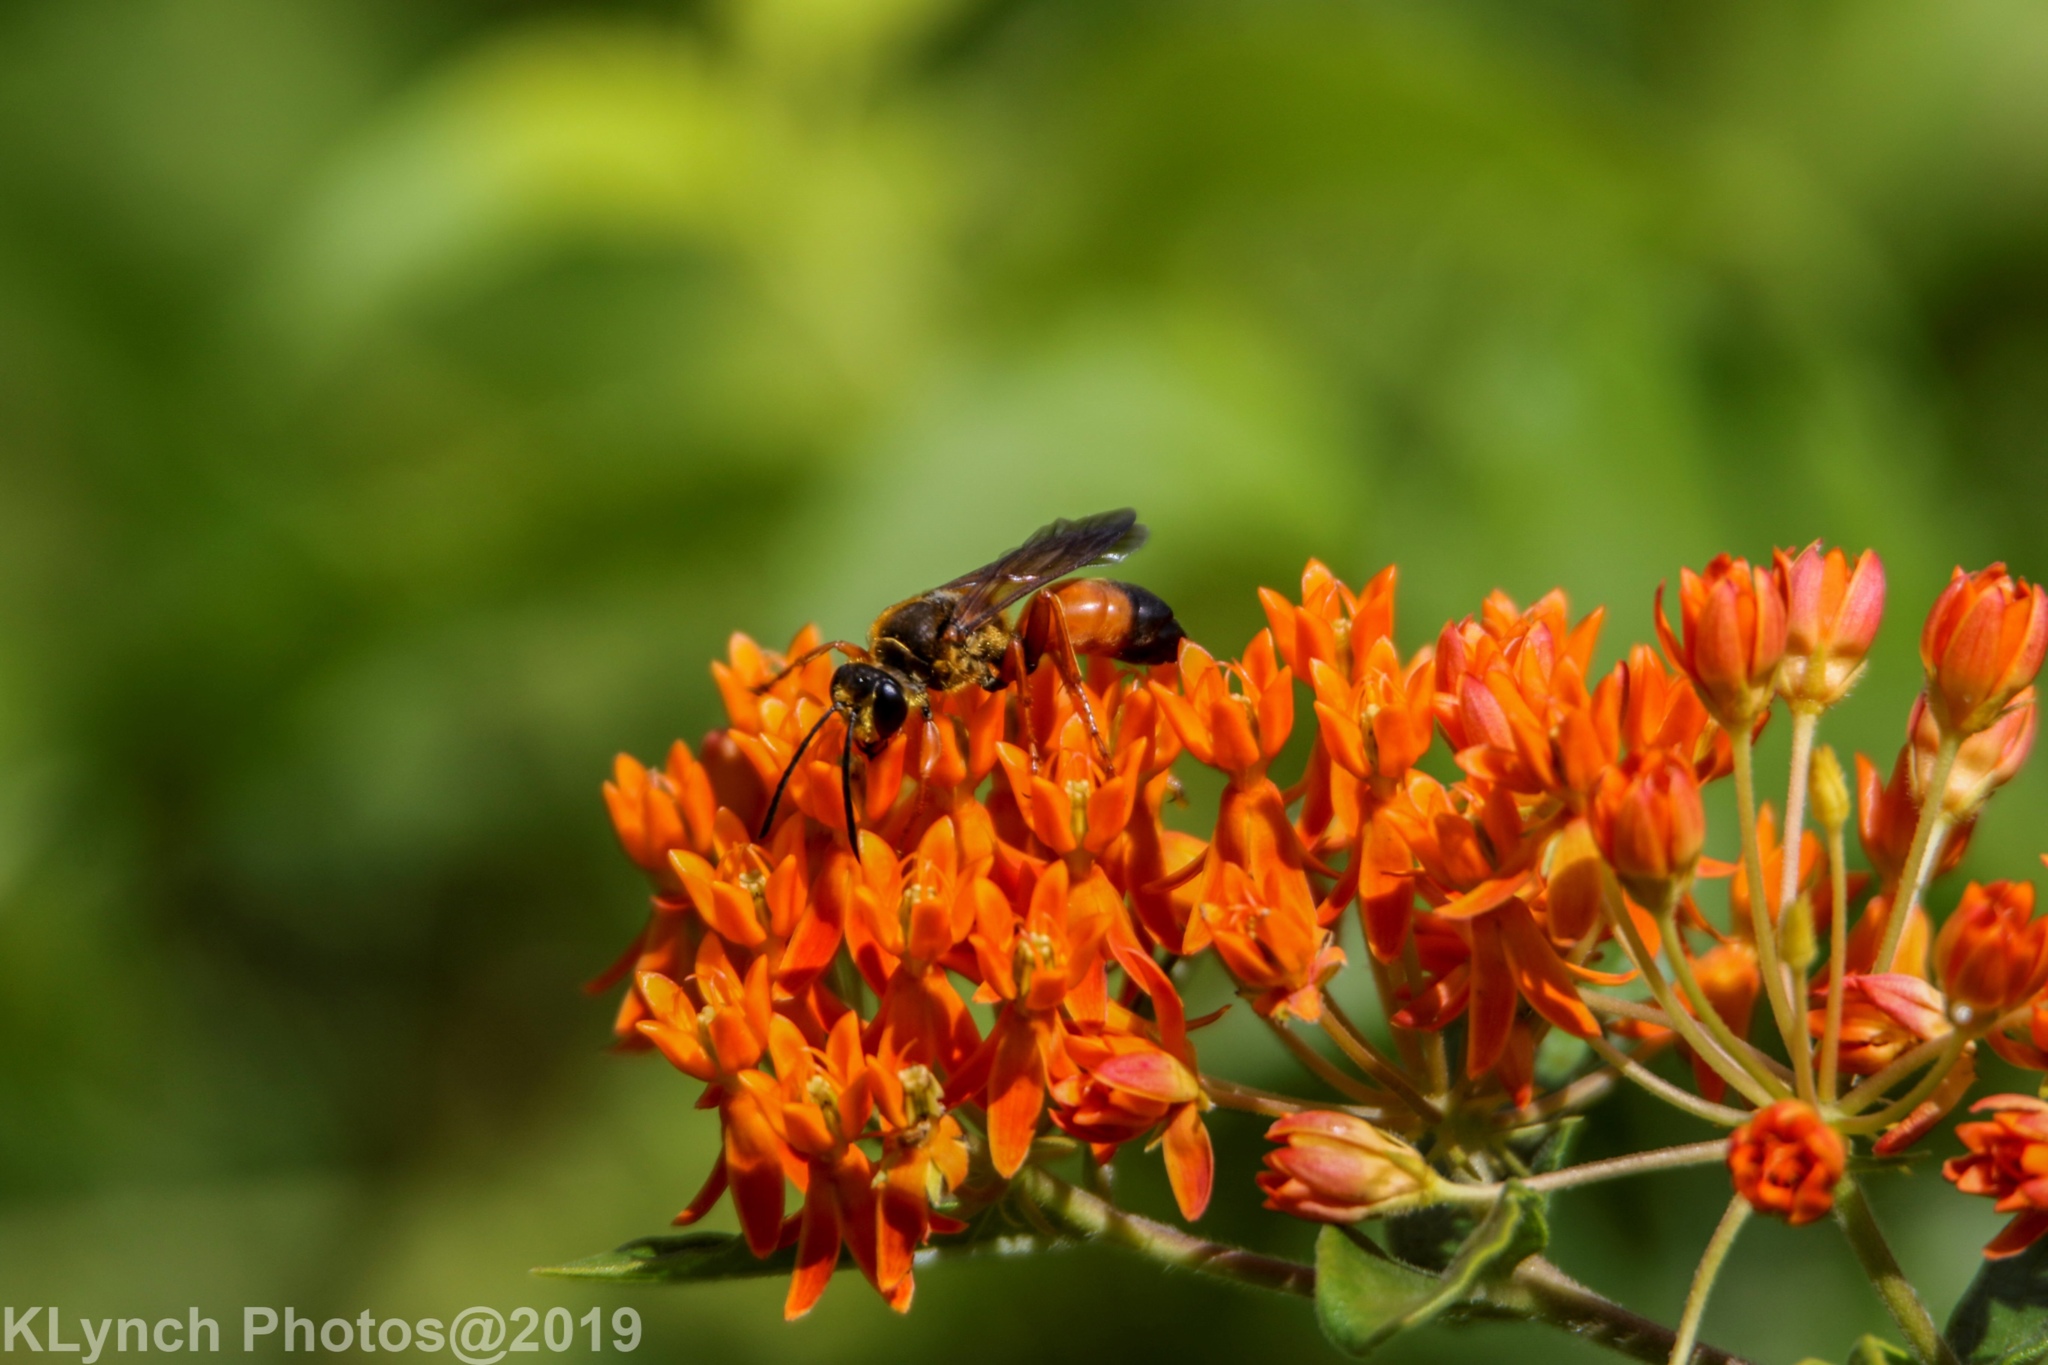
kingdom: Animalia
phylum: Arthropoda
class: Insecta
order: Hymenoptera
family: Sphecidae
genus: Sphex
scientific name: Sphex ichneumoneus
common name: Great golden digger wasp
